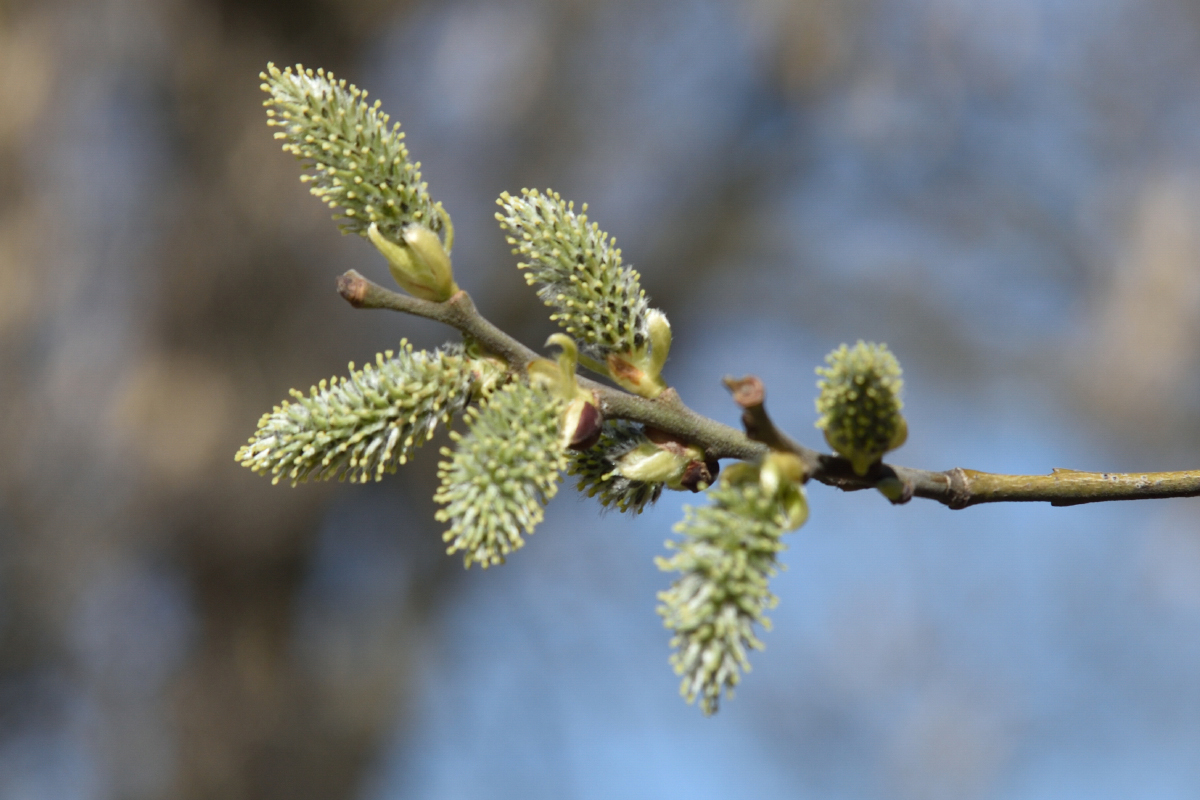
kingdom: Plantae
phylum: Tracheophyta
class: Magnoliopsida
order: Malpighiales
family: Salicaceae
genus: Salix
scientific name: Salix caprea
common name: Goat willow
